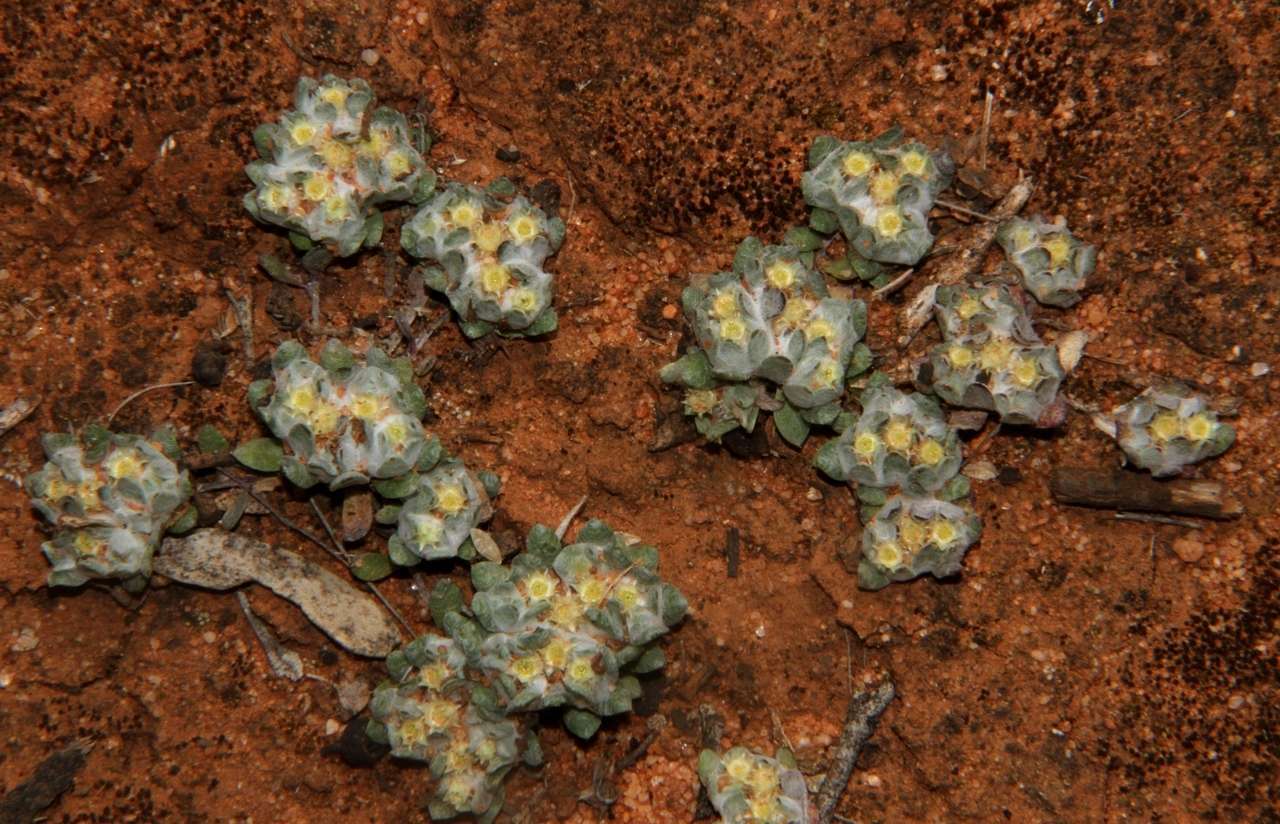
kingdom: Plantae
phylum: Tracheophyta
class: Magnoliopsida
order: Asterales
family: Asteraceae
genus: Actinobole
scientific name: Actinobole uliginosum
